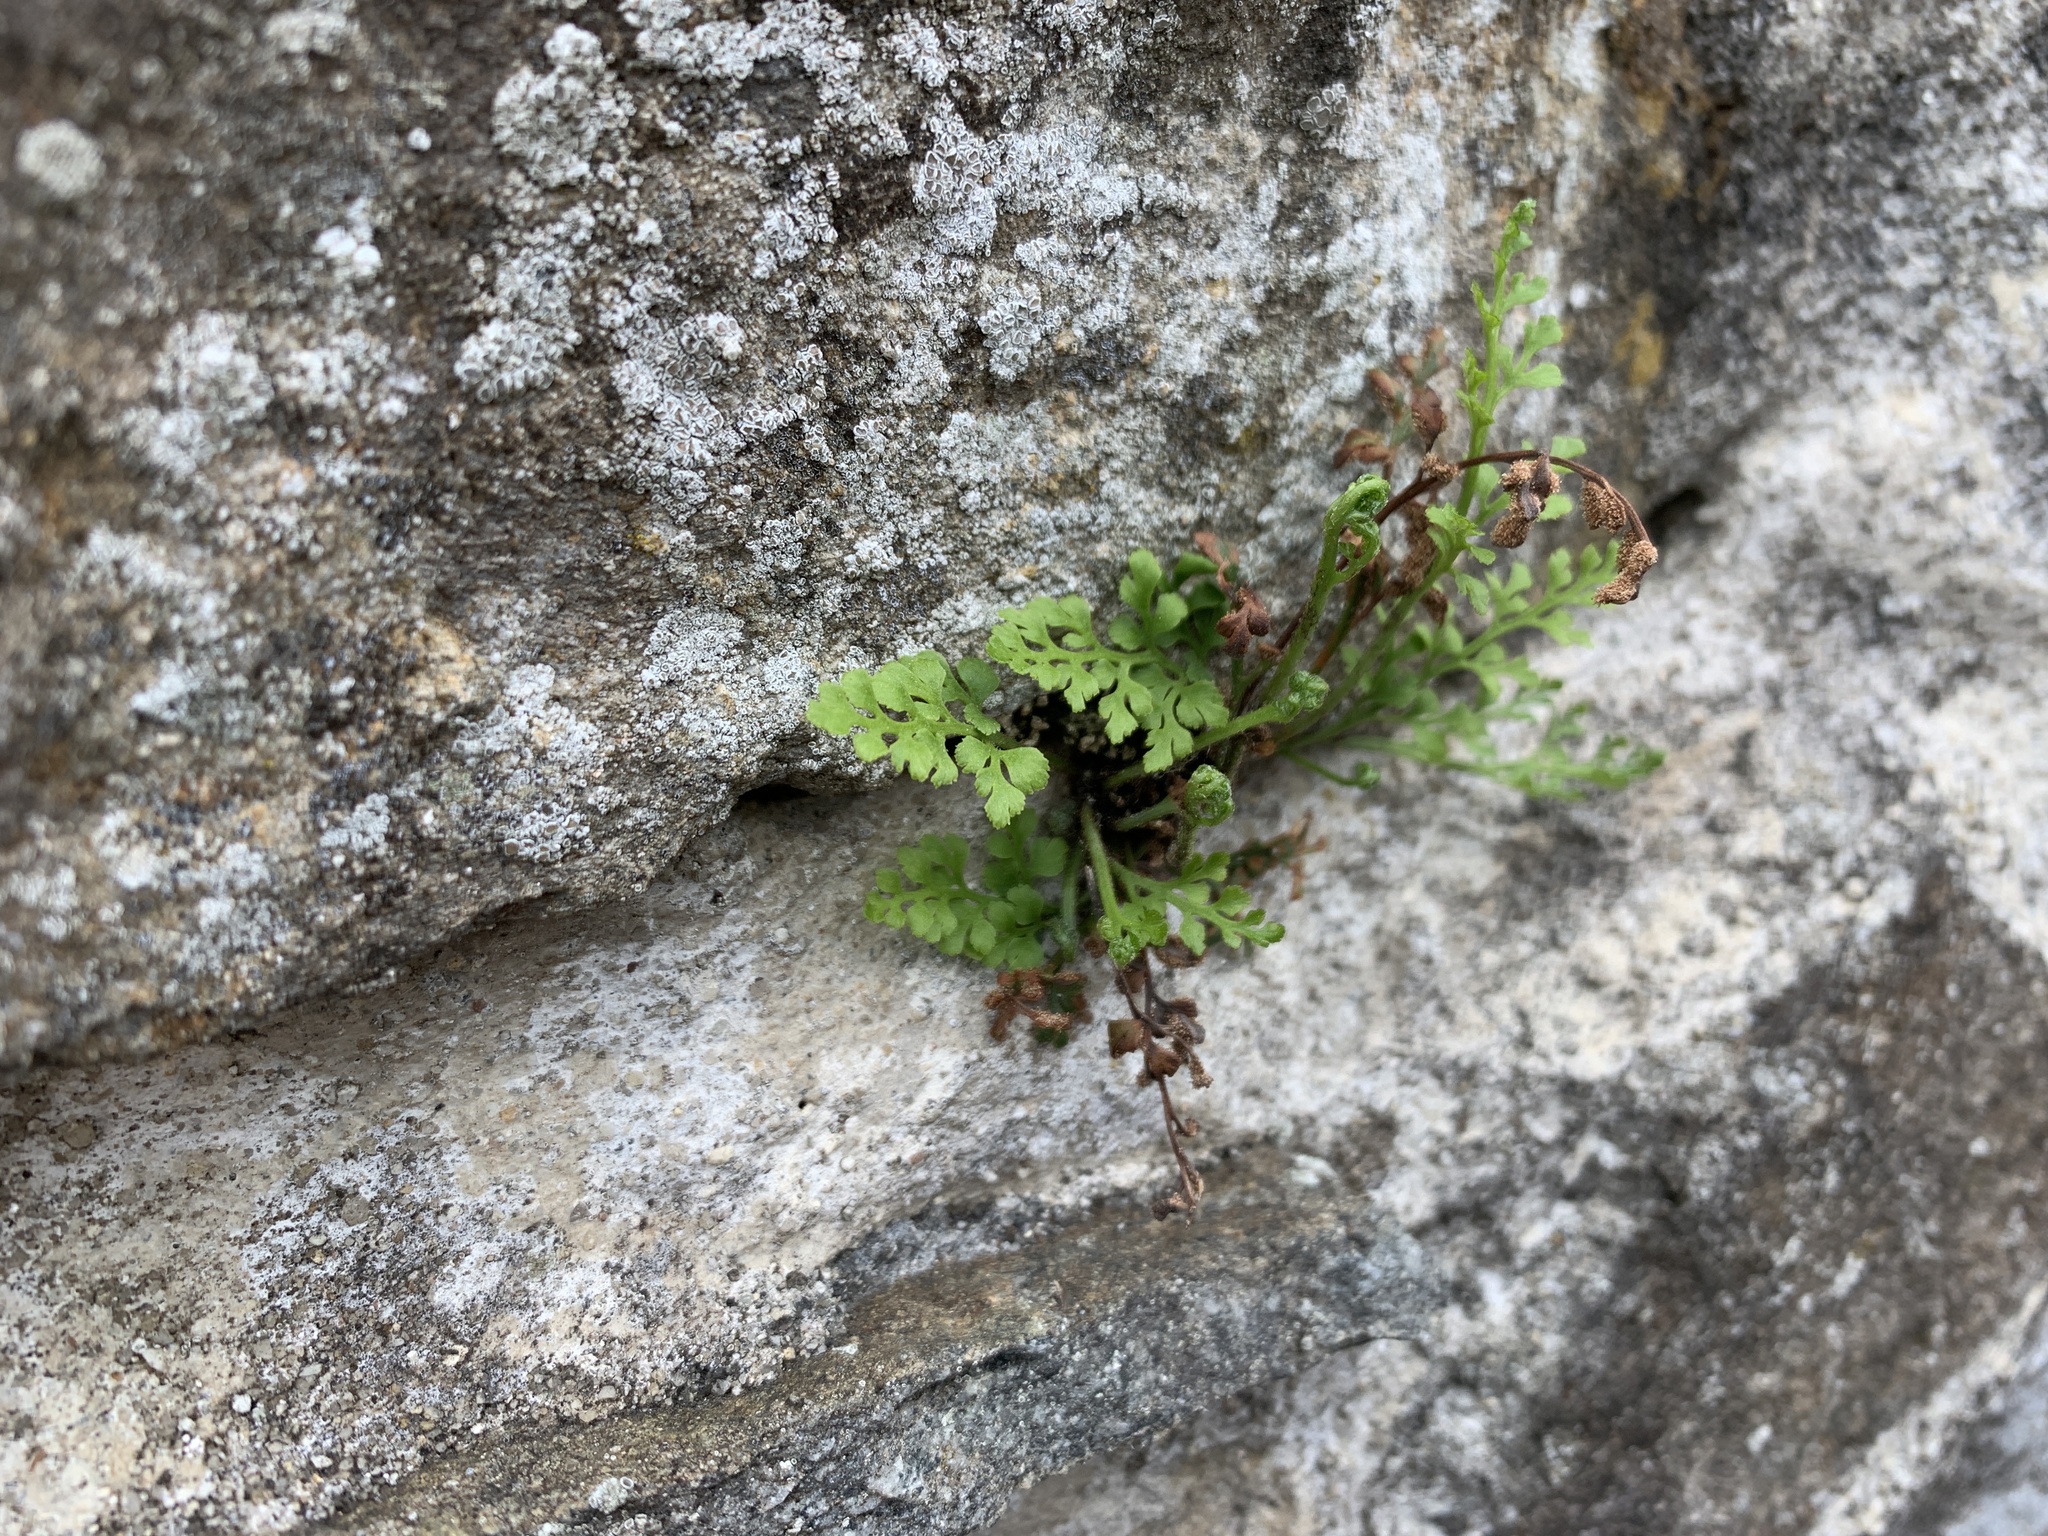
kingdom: Plantae
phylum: Tracheophyta
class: Polypodiopsida
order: Polypodiales
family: Aspleniaceae
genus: Asplenium
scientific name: Asplenium ruta-muraria
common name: Wall-rue
